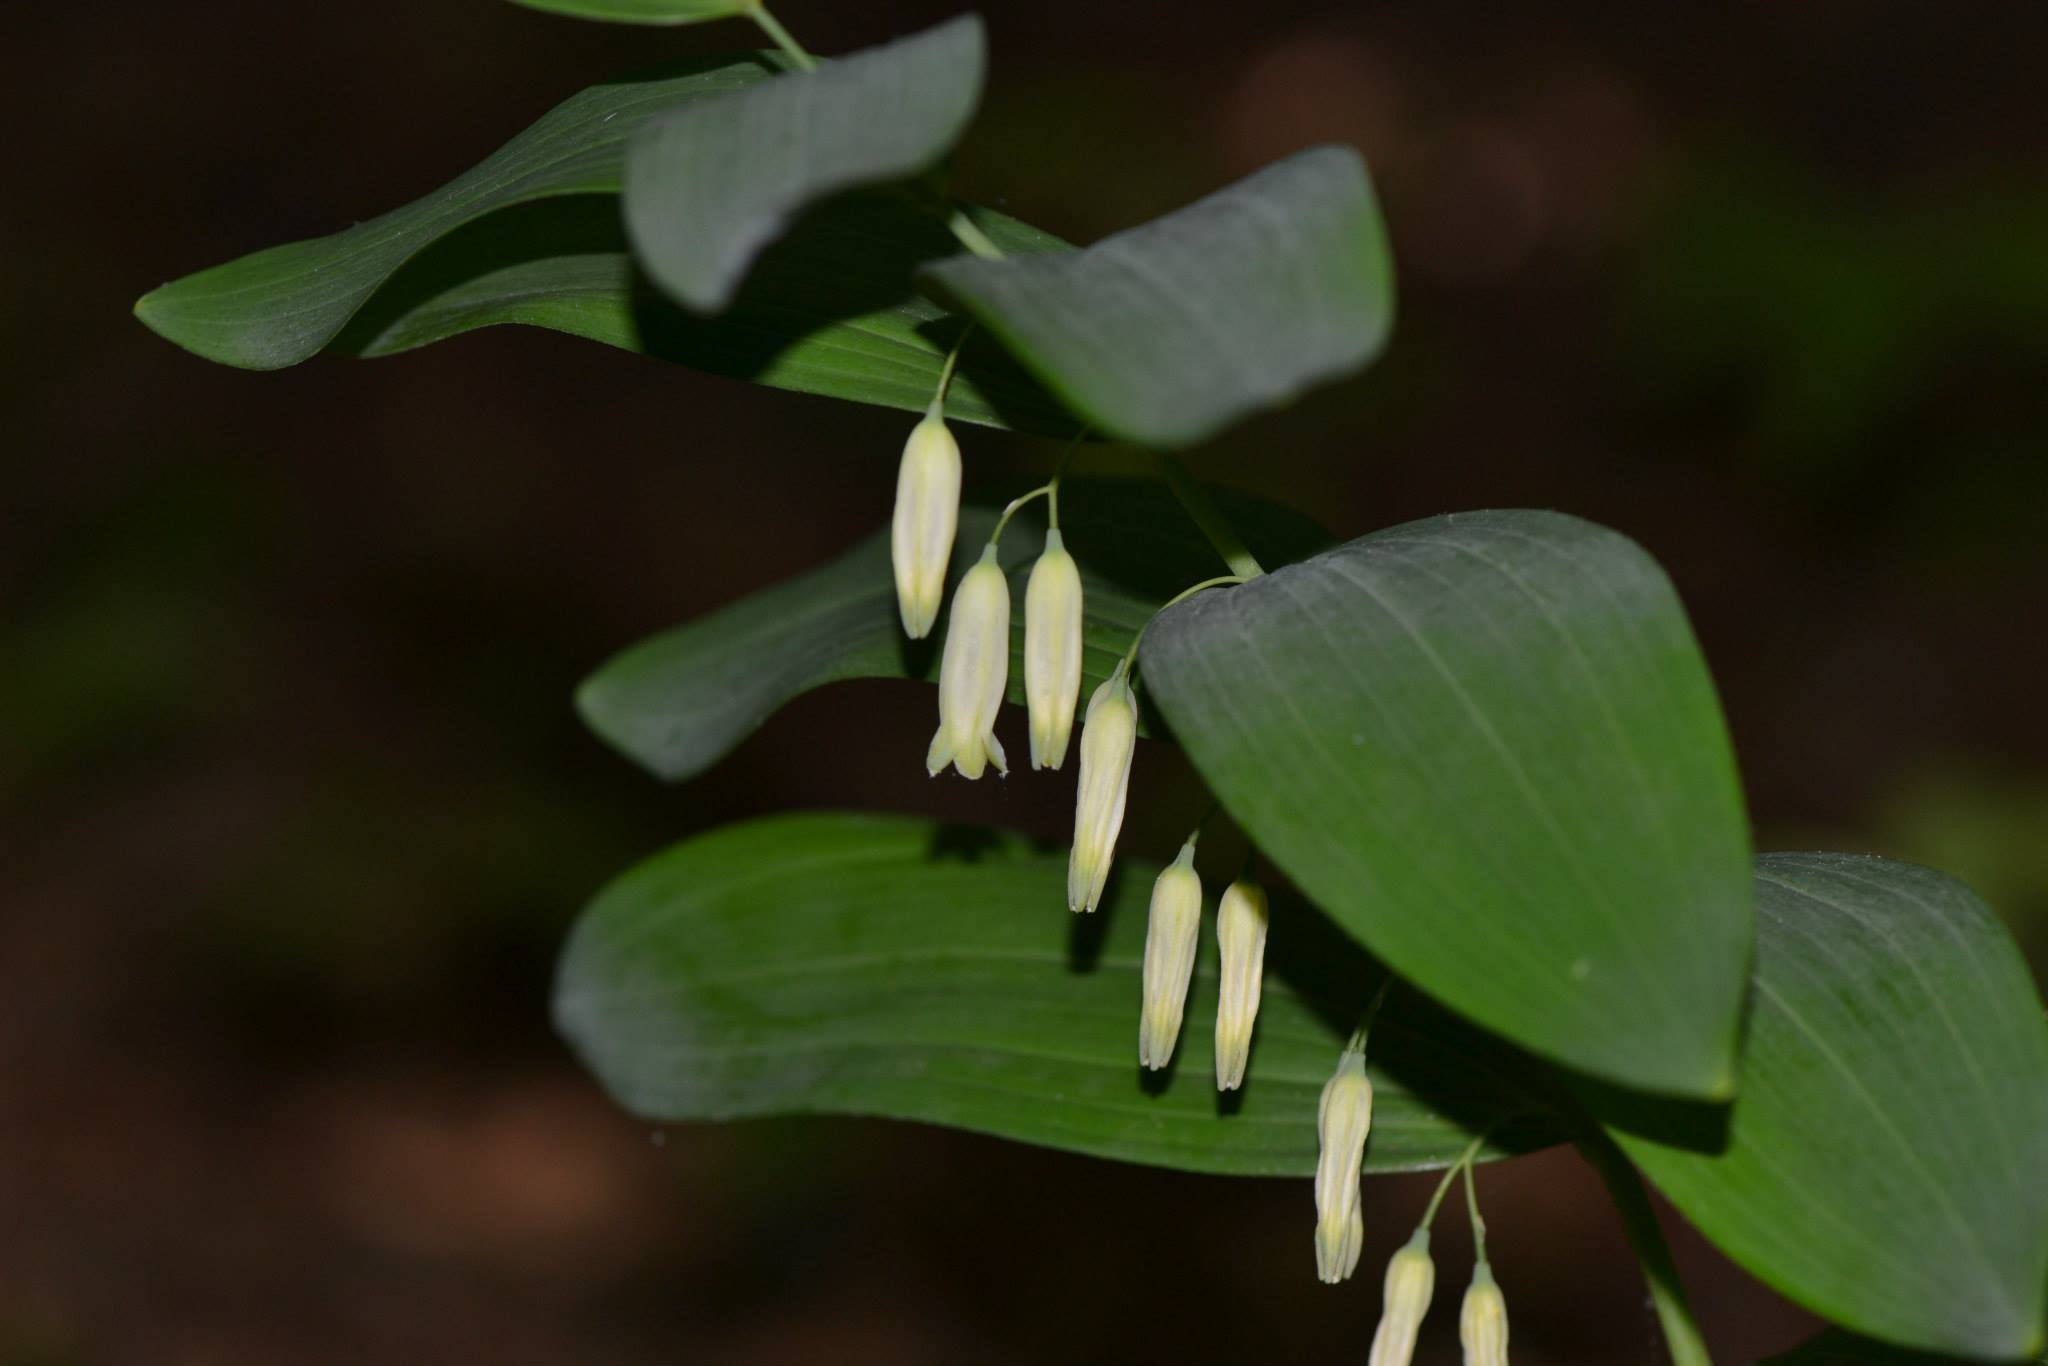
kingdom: Plantae
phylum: Tracheophyta
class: Liliopsida
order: Asparagales
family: Asparagaceae
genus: Polygonatum
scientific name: Polygonatum biflorum
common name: American solomon's-seal
